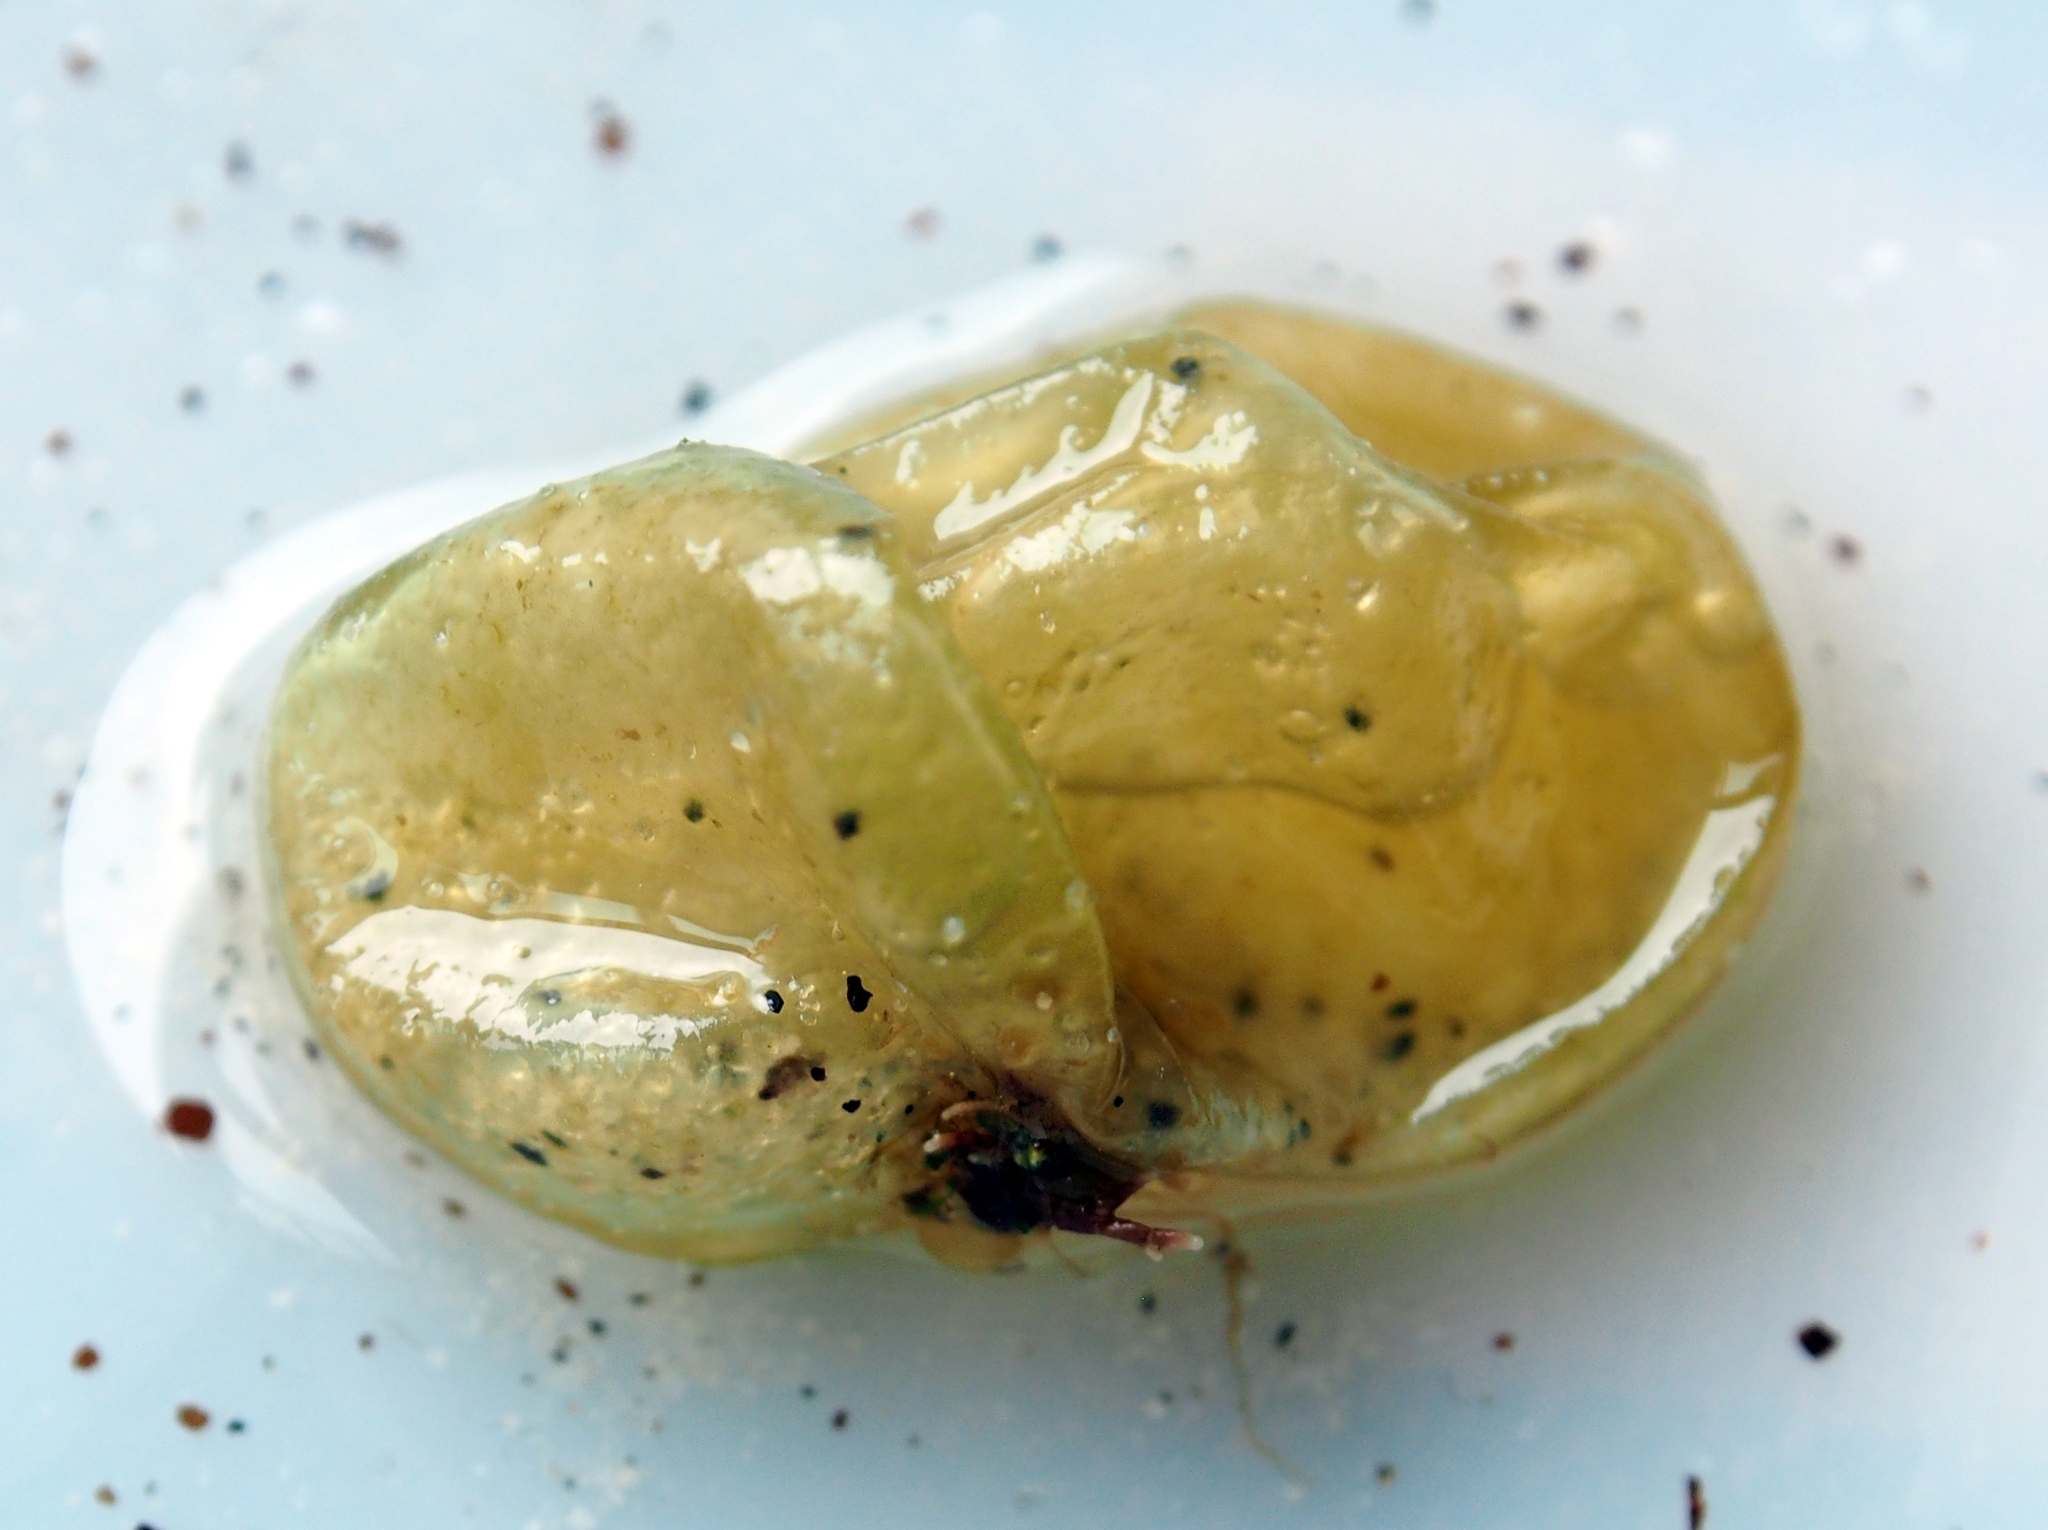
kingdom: Chromista
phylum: Ochrophyta
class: Phaeophyceae
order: Scytosiphonales
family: Scytosiphonaceae
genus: Colpomenia
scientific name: Colpomenia peregrina
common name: Oyster thief
